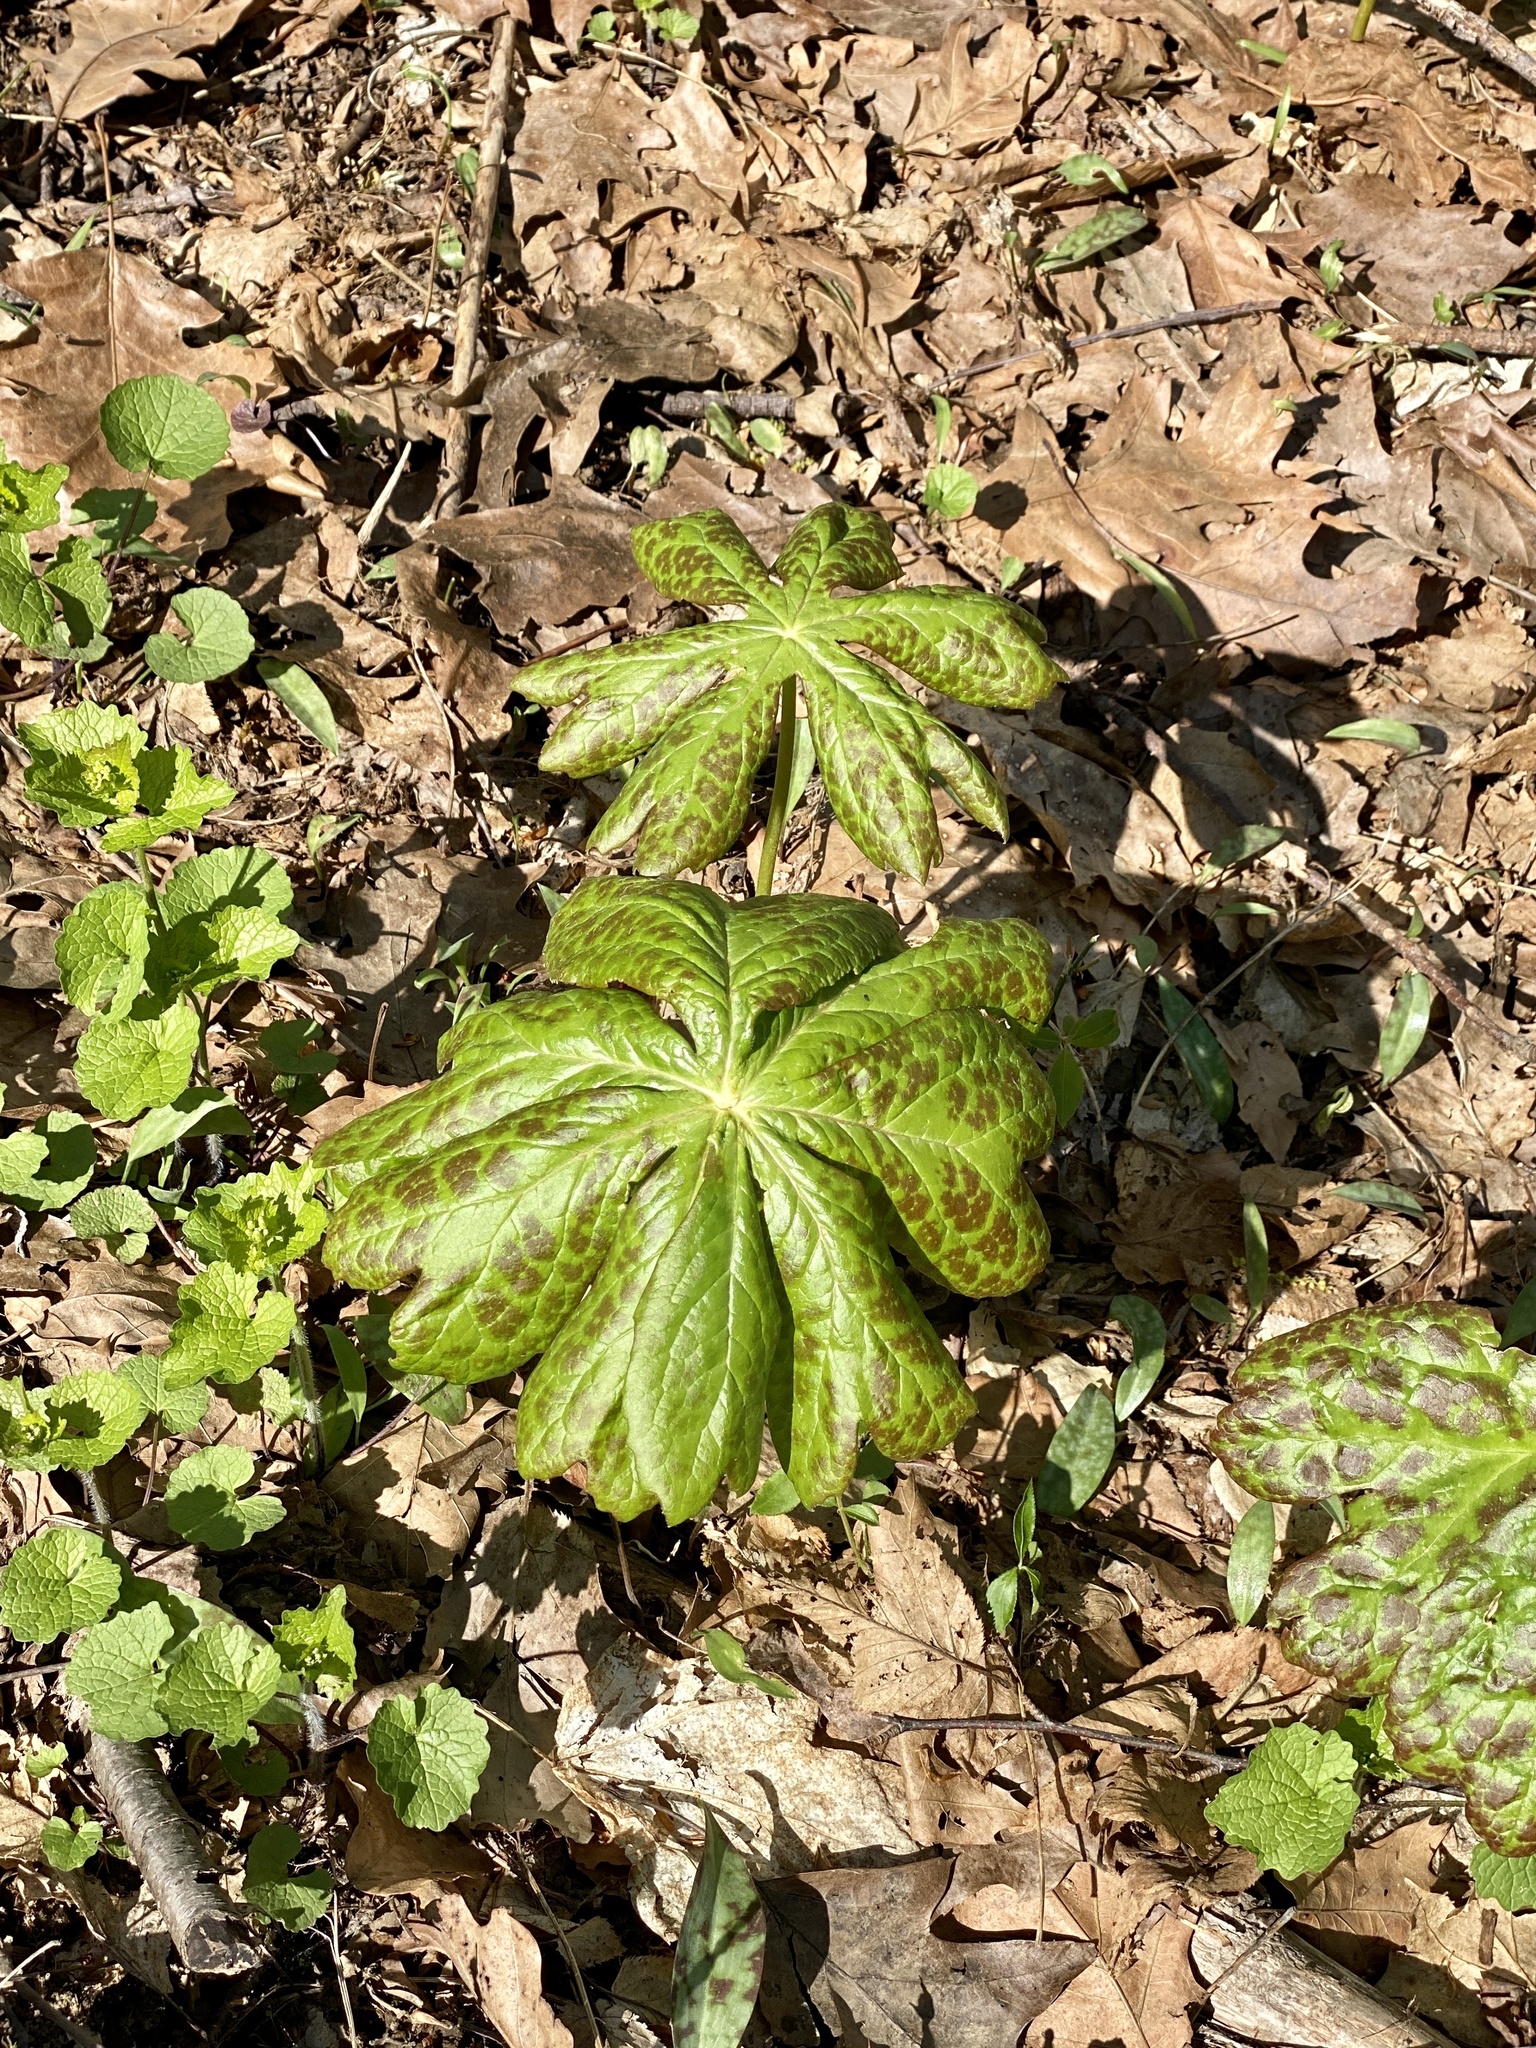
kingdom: Plantae
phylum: Tracheophyta
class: Magnoliopsida
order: Ranunculales
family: Berberidaceae
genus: Podophyllum
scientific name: Podophyllum peltatum
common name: Wild mandrake
